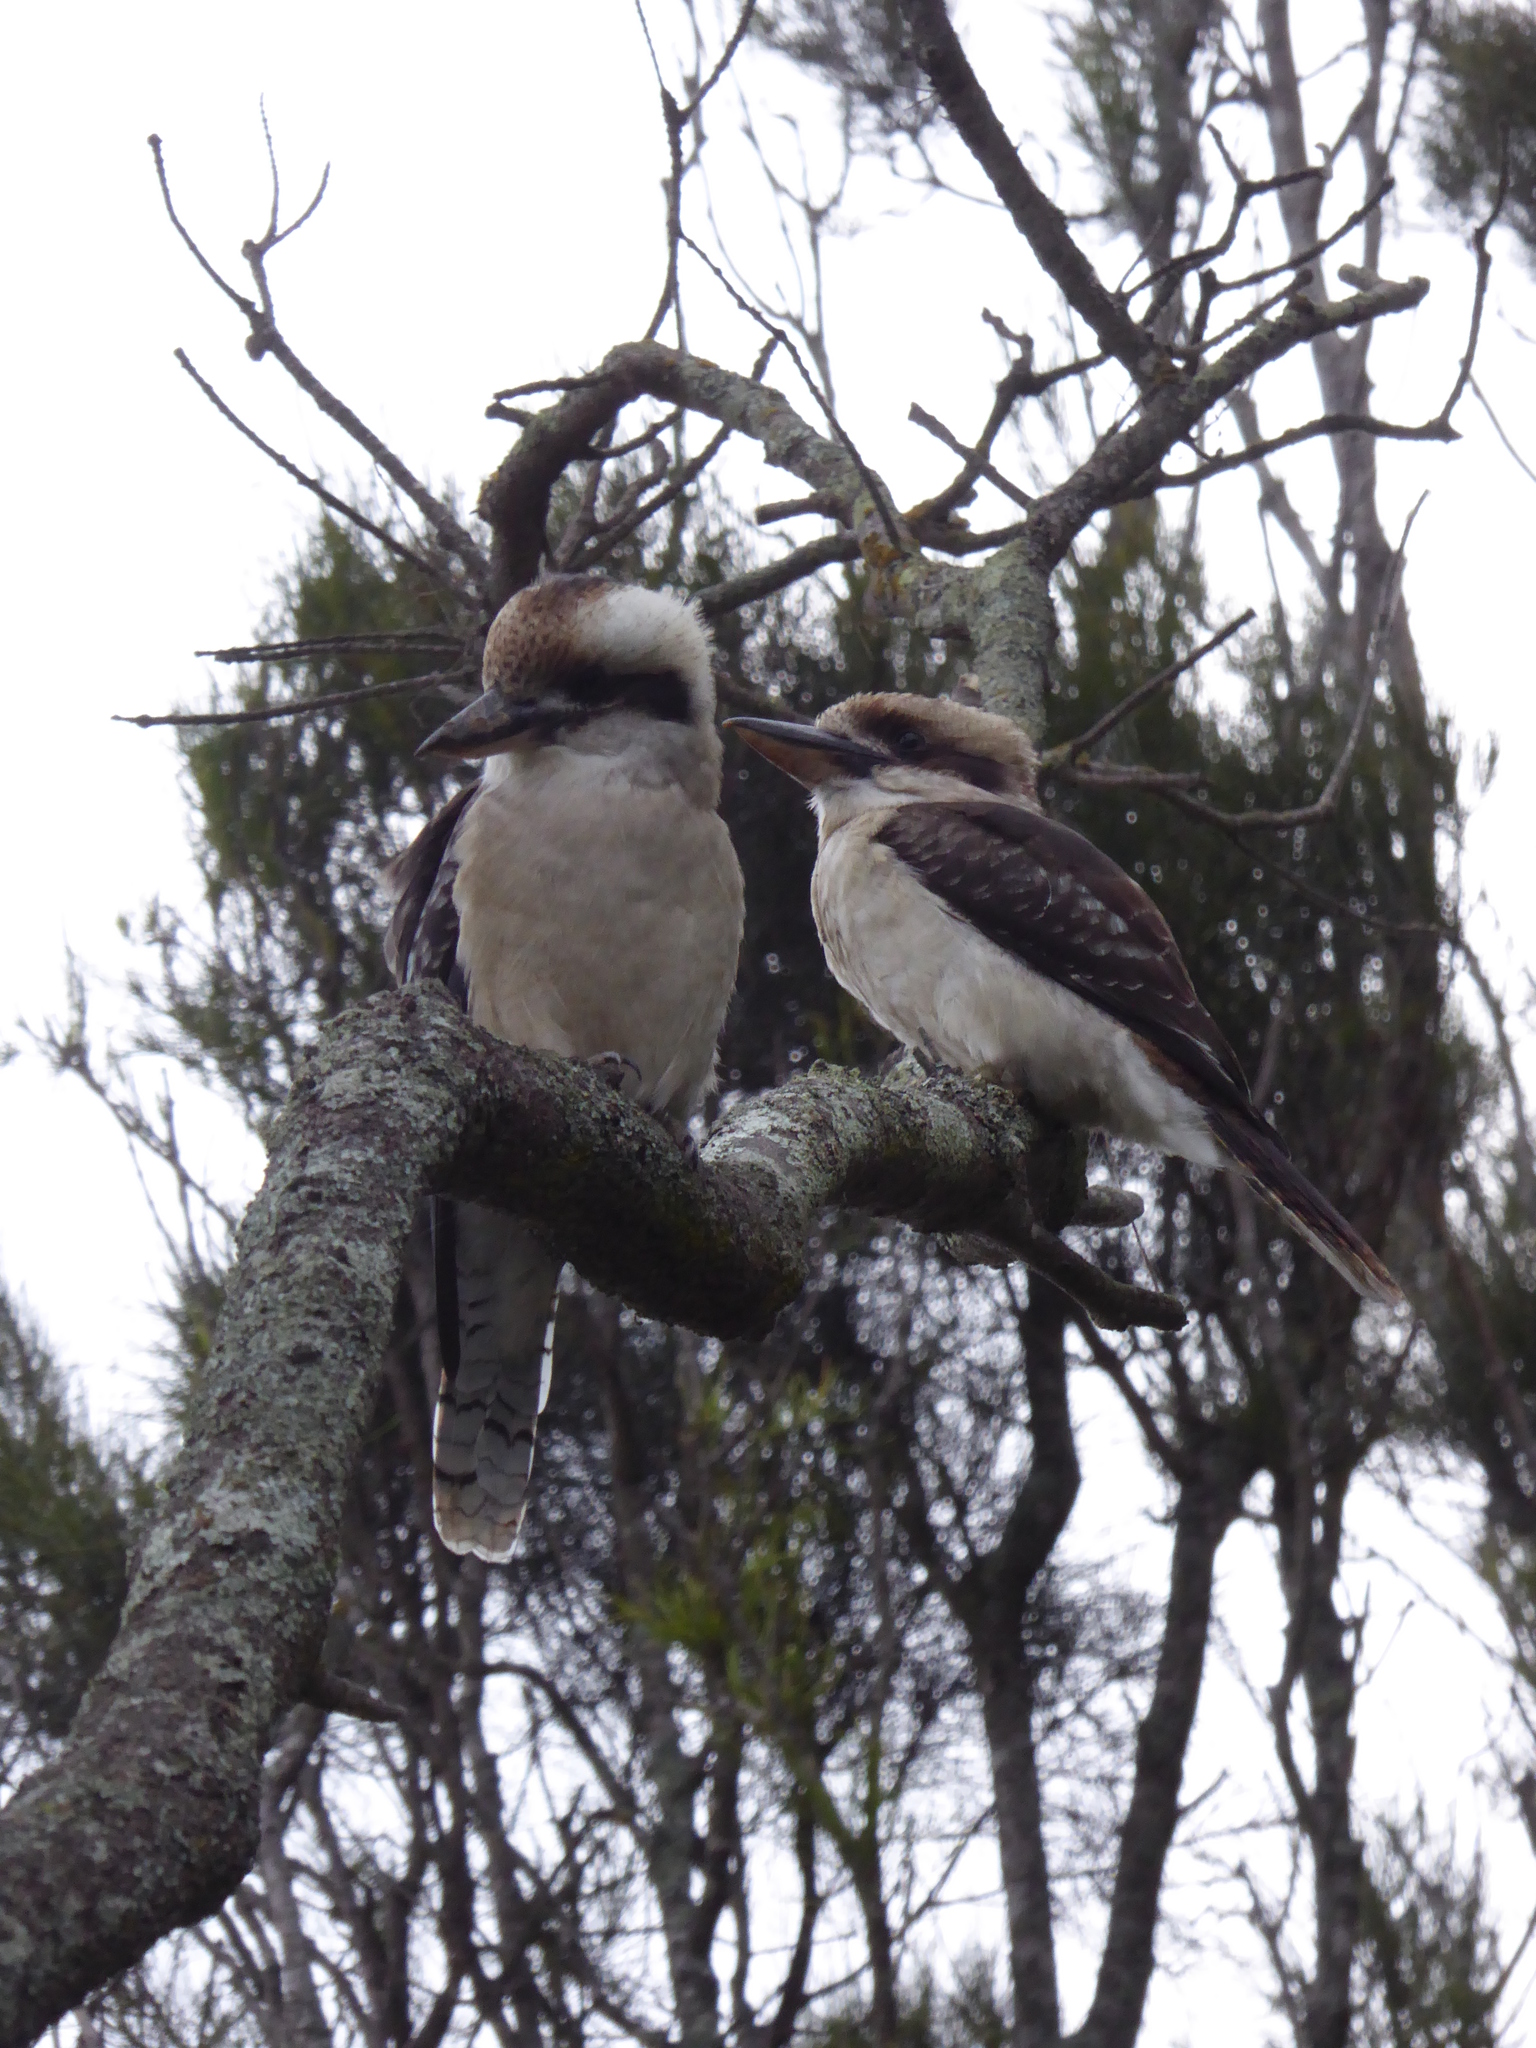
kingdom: Animalia
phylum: Chordata
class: Aves
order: Coraciiformes
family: Alcedinidae
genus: Dacelo
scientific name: Dacelo novaeguineae
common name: Laughing kookaburra
